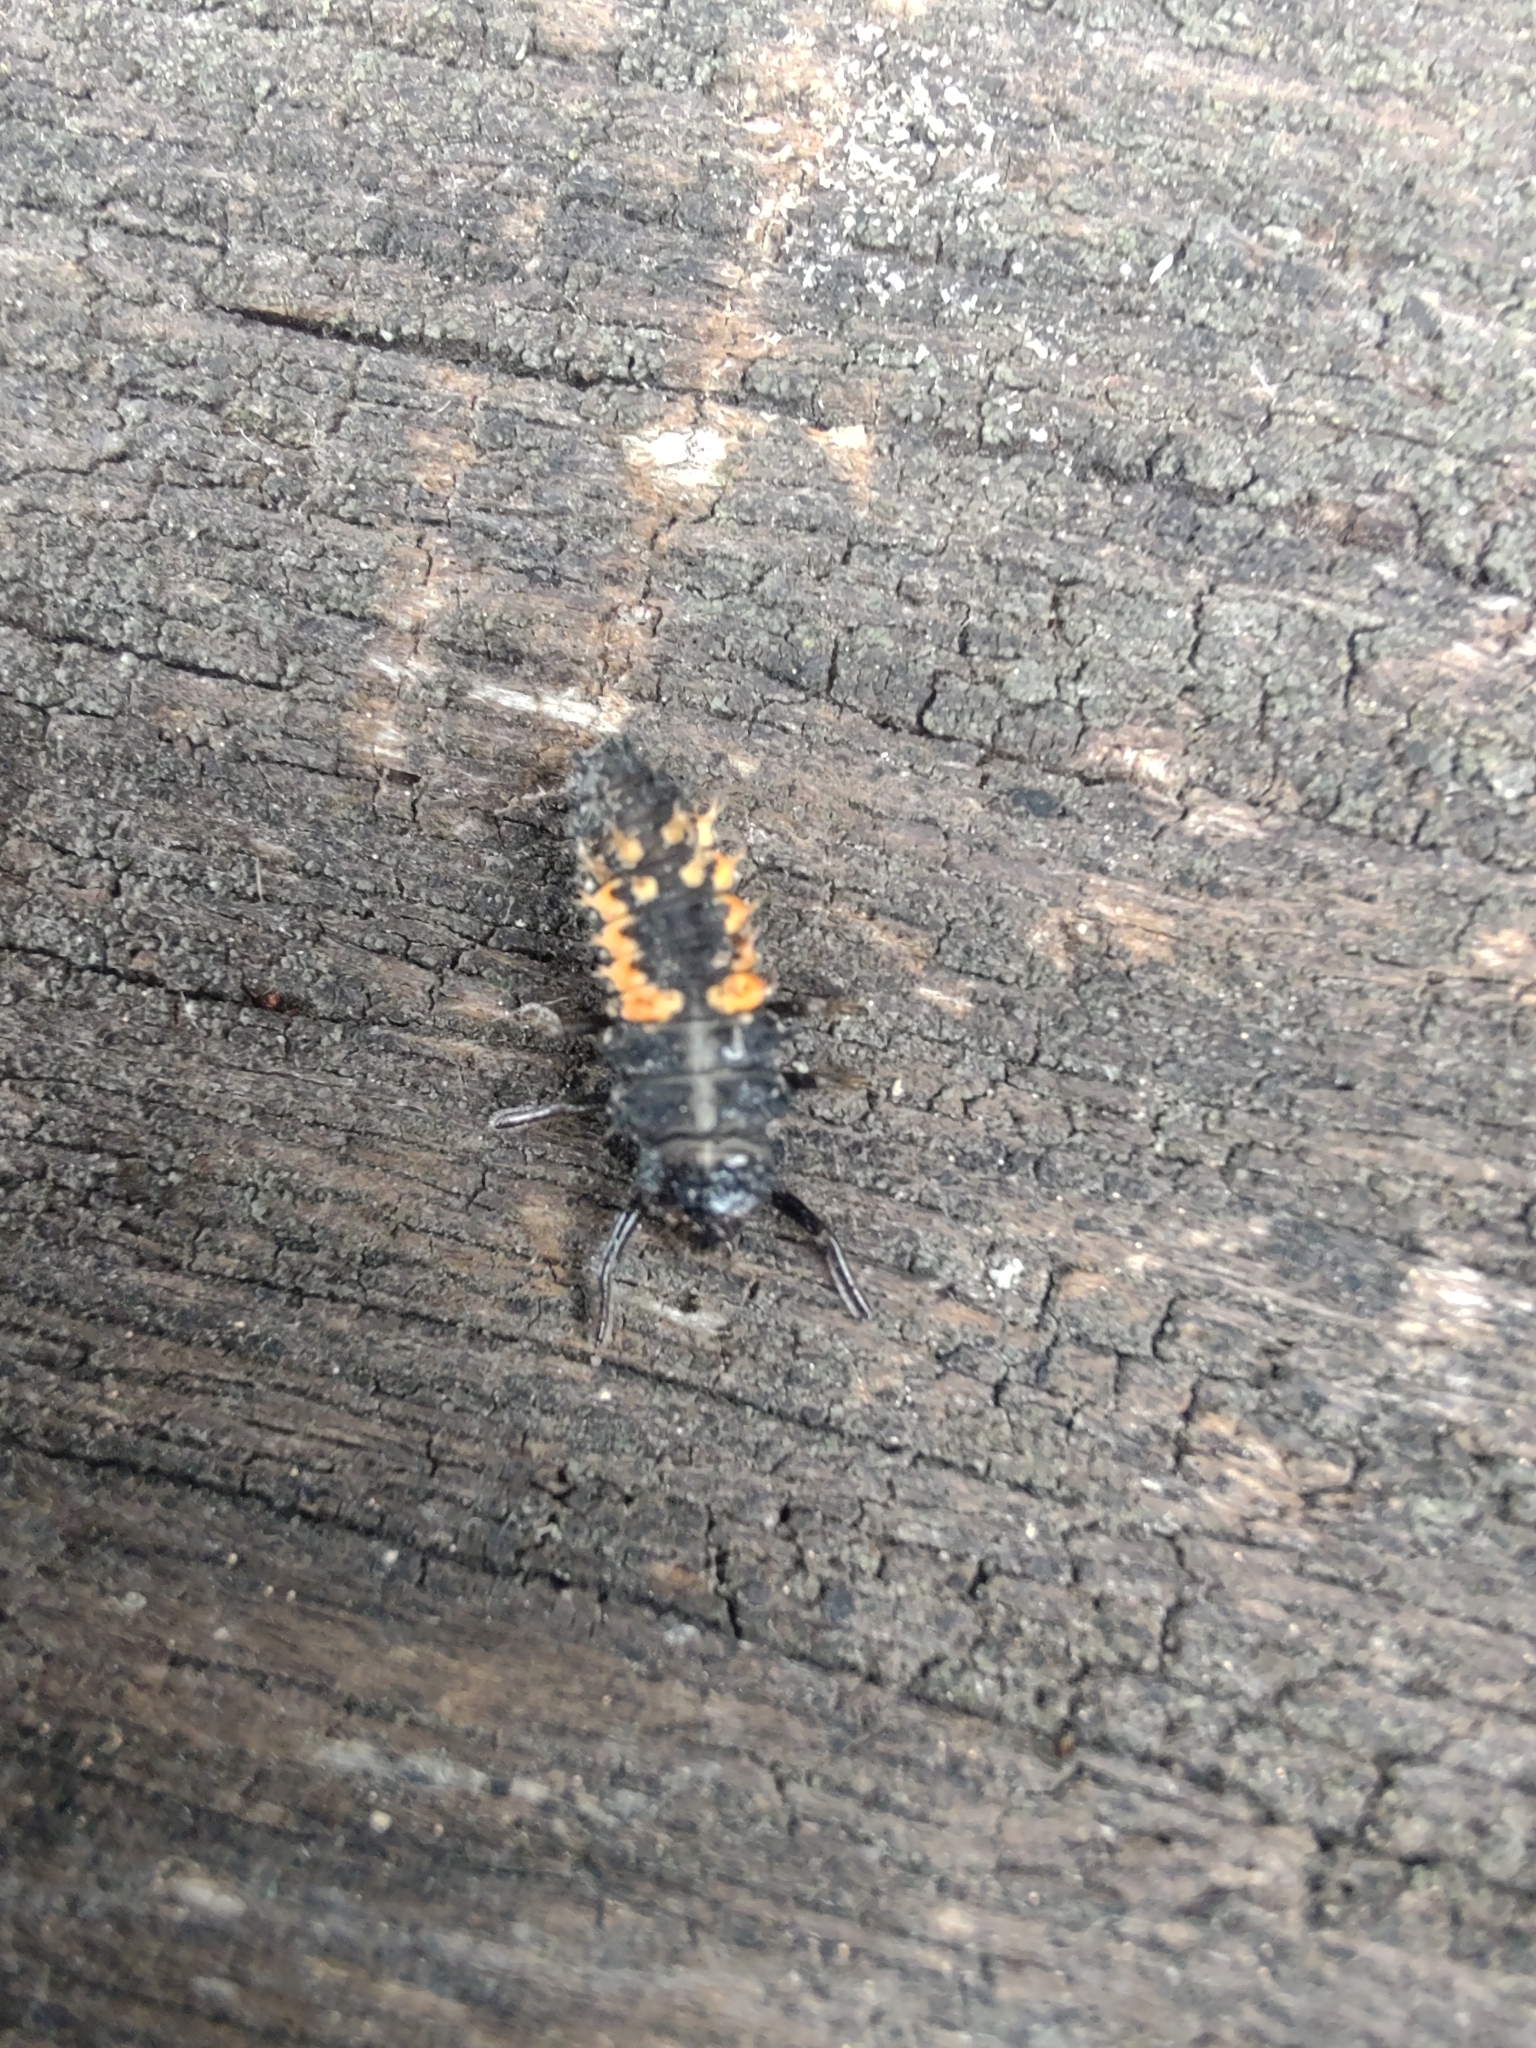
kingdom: Animalia
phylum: Arthropoda
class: Insecta
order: Coleoptera
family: Coccinellidae
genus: Harmonia
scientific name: Harmonia axyridis
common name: Harlequin ladybird
